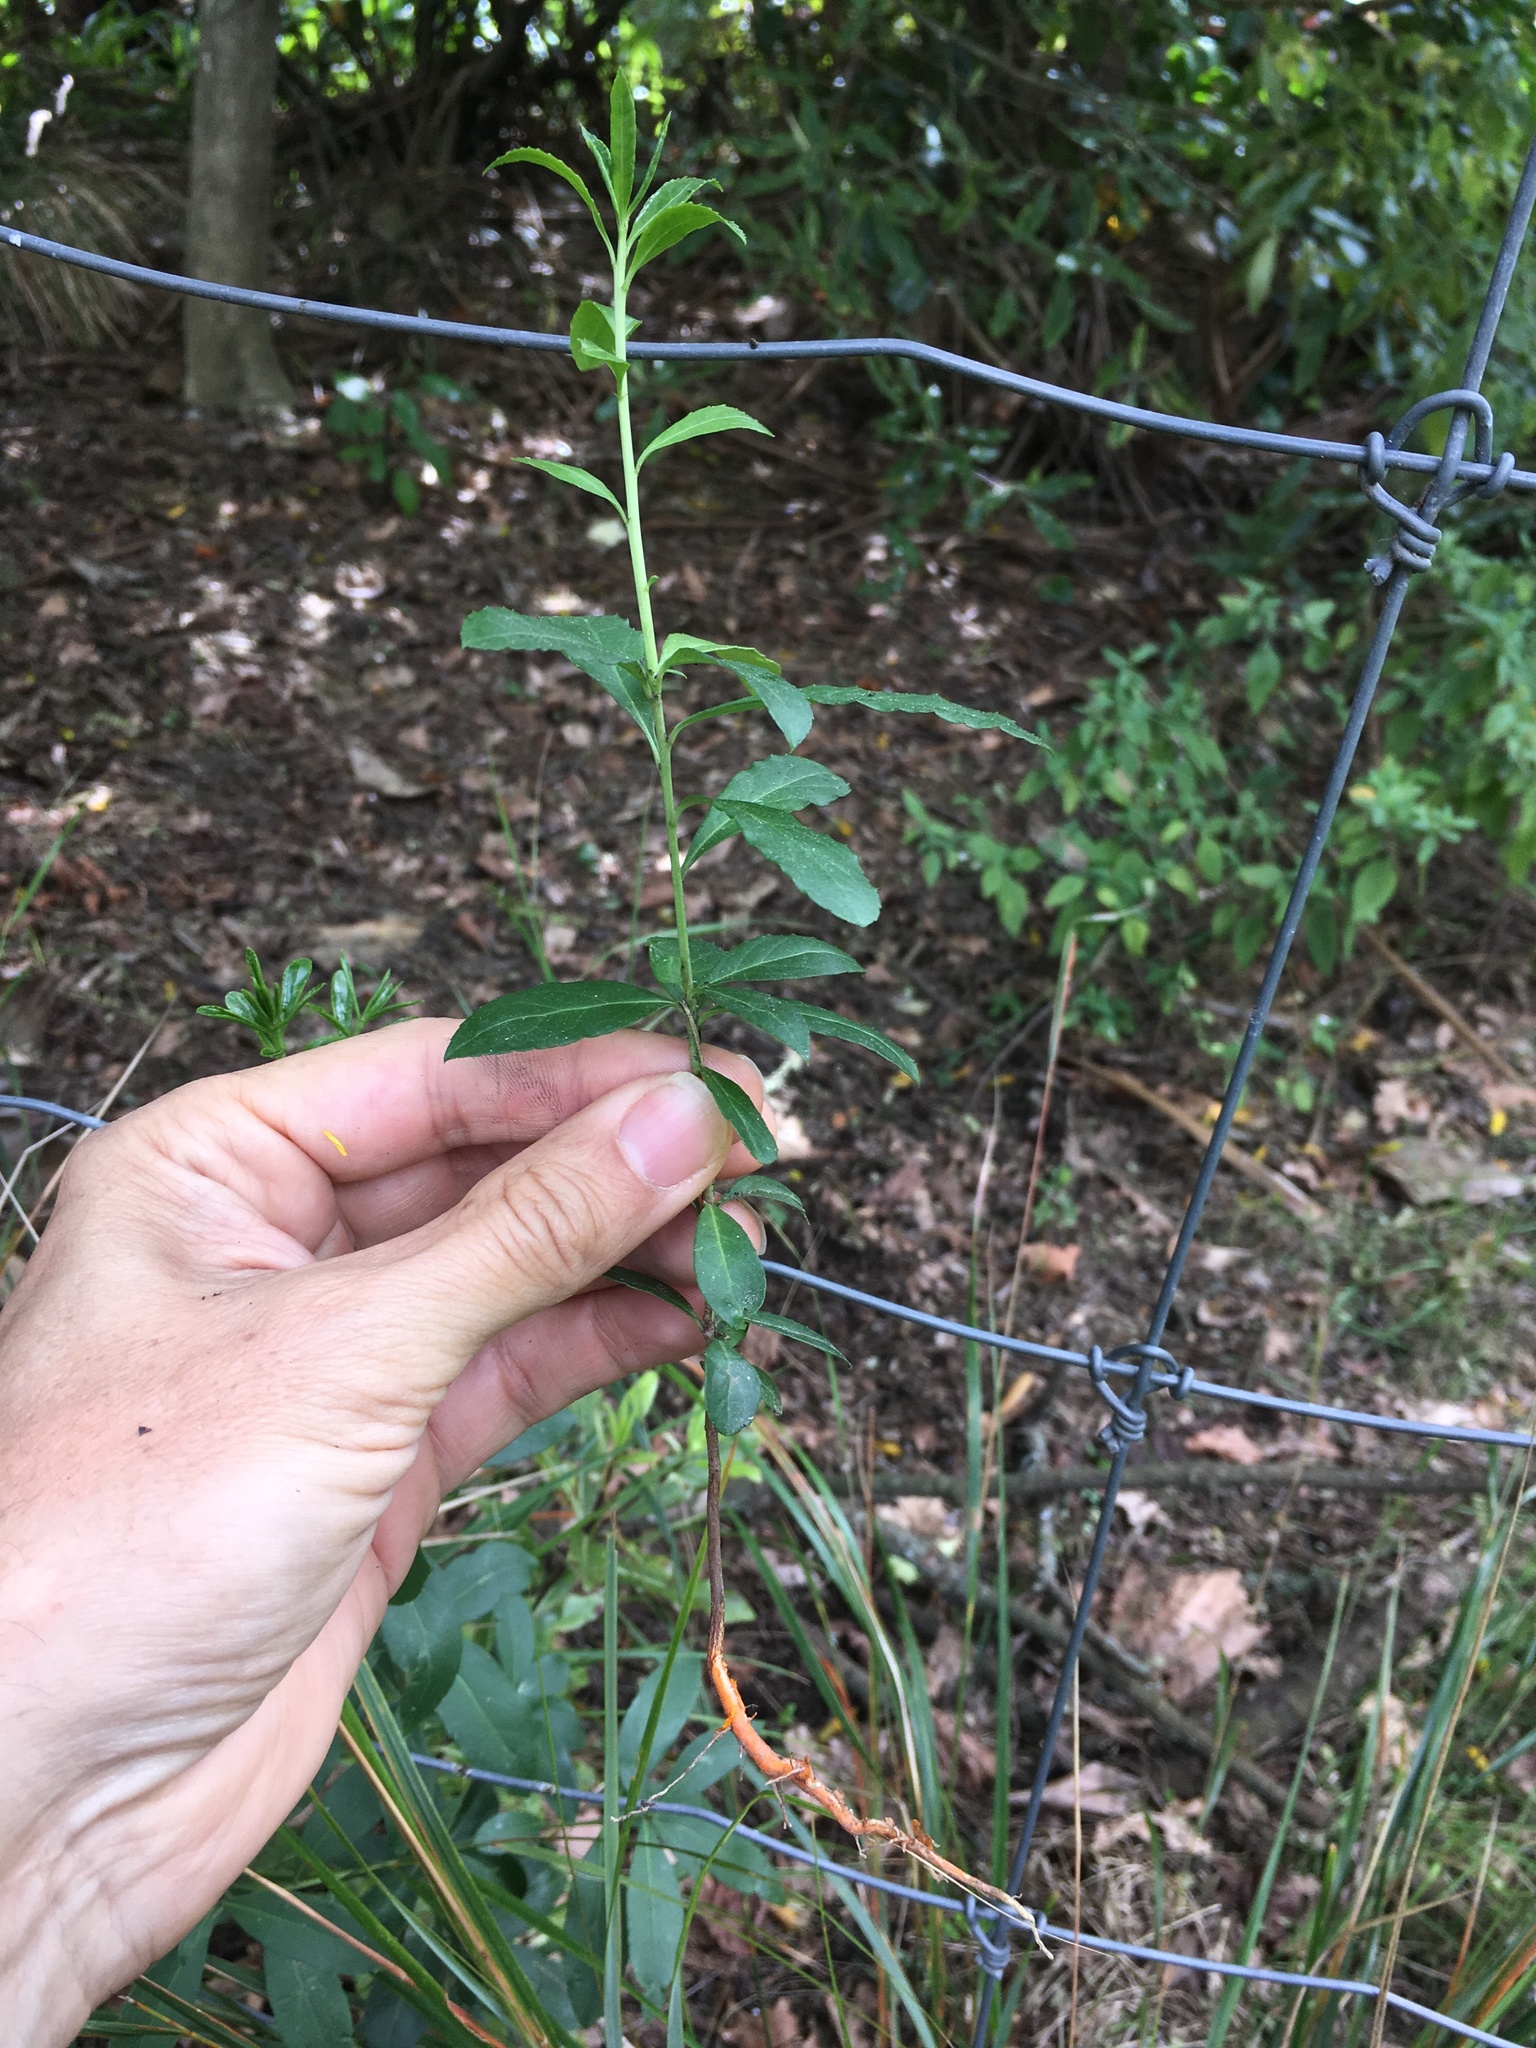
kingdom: Plantae
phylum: Tracheophyta
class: Magnoliopsida
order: Celastrales
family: Celastraceae
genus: Maytenus
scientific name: Maytenus boaria
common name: Mayten
